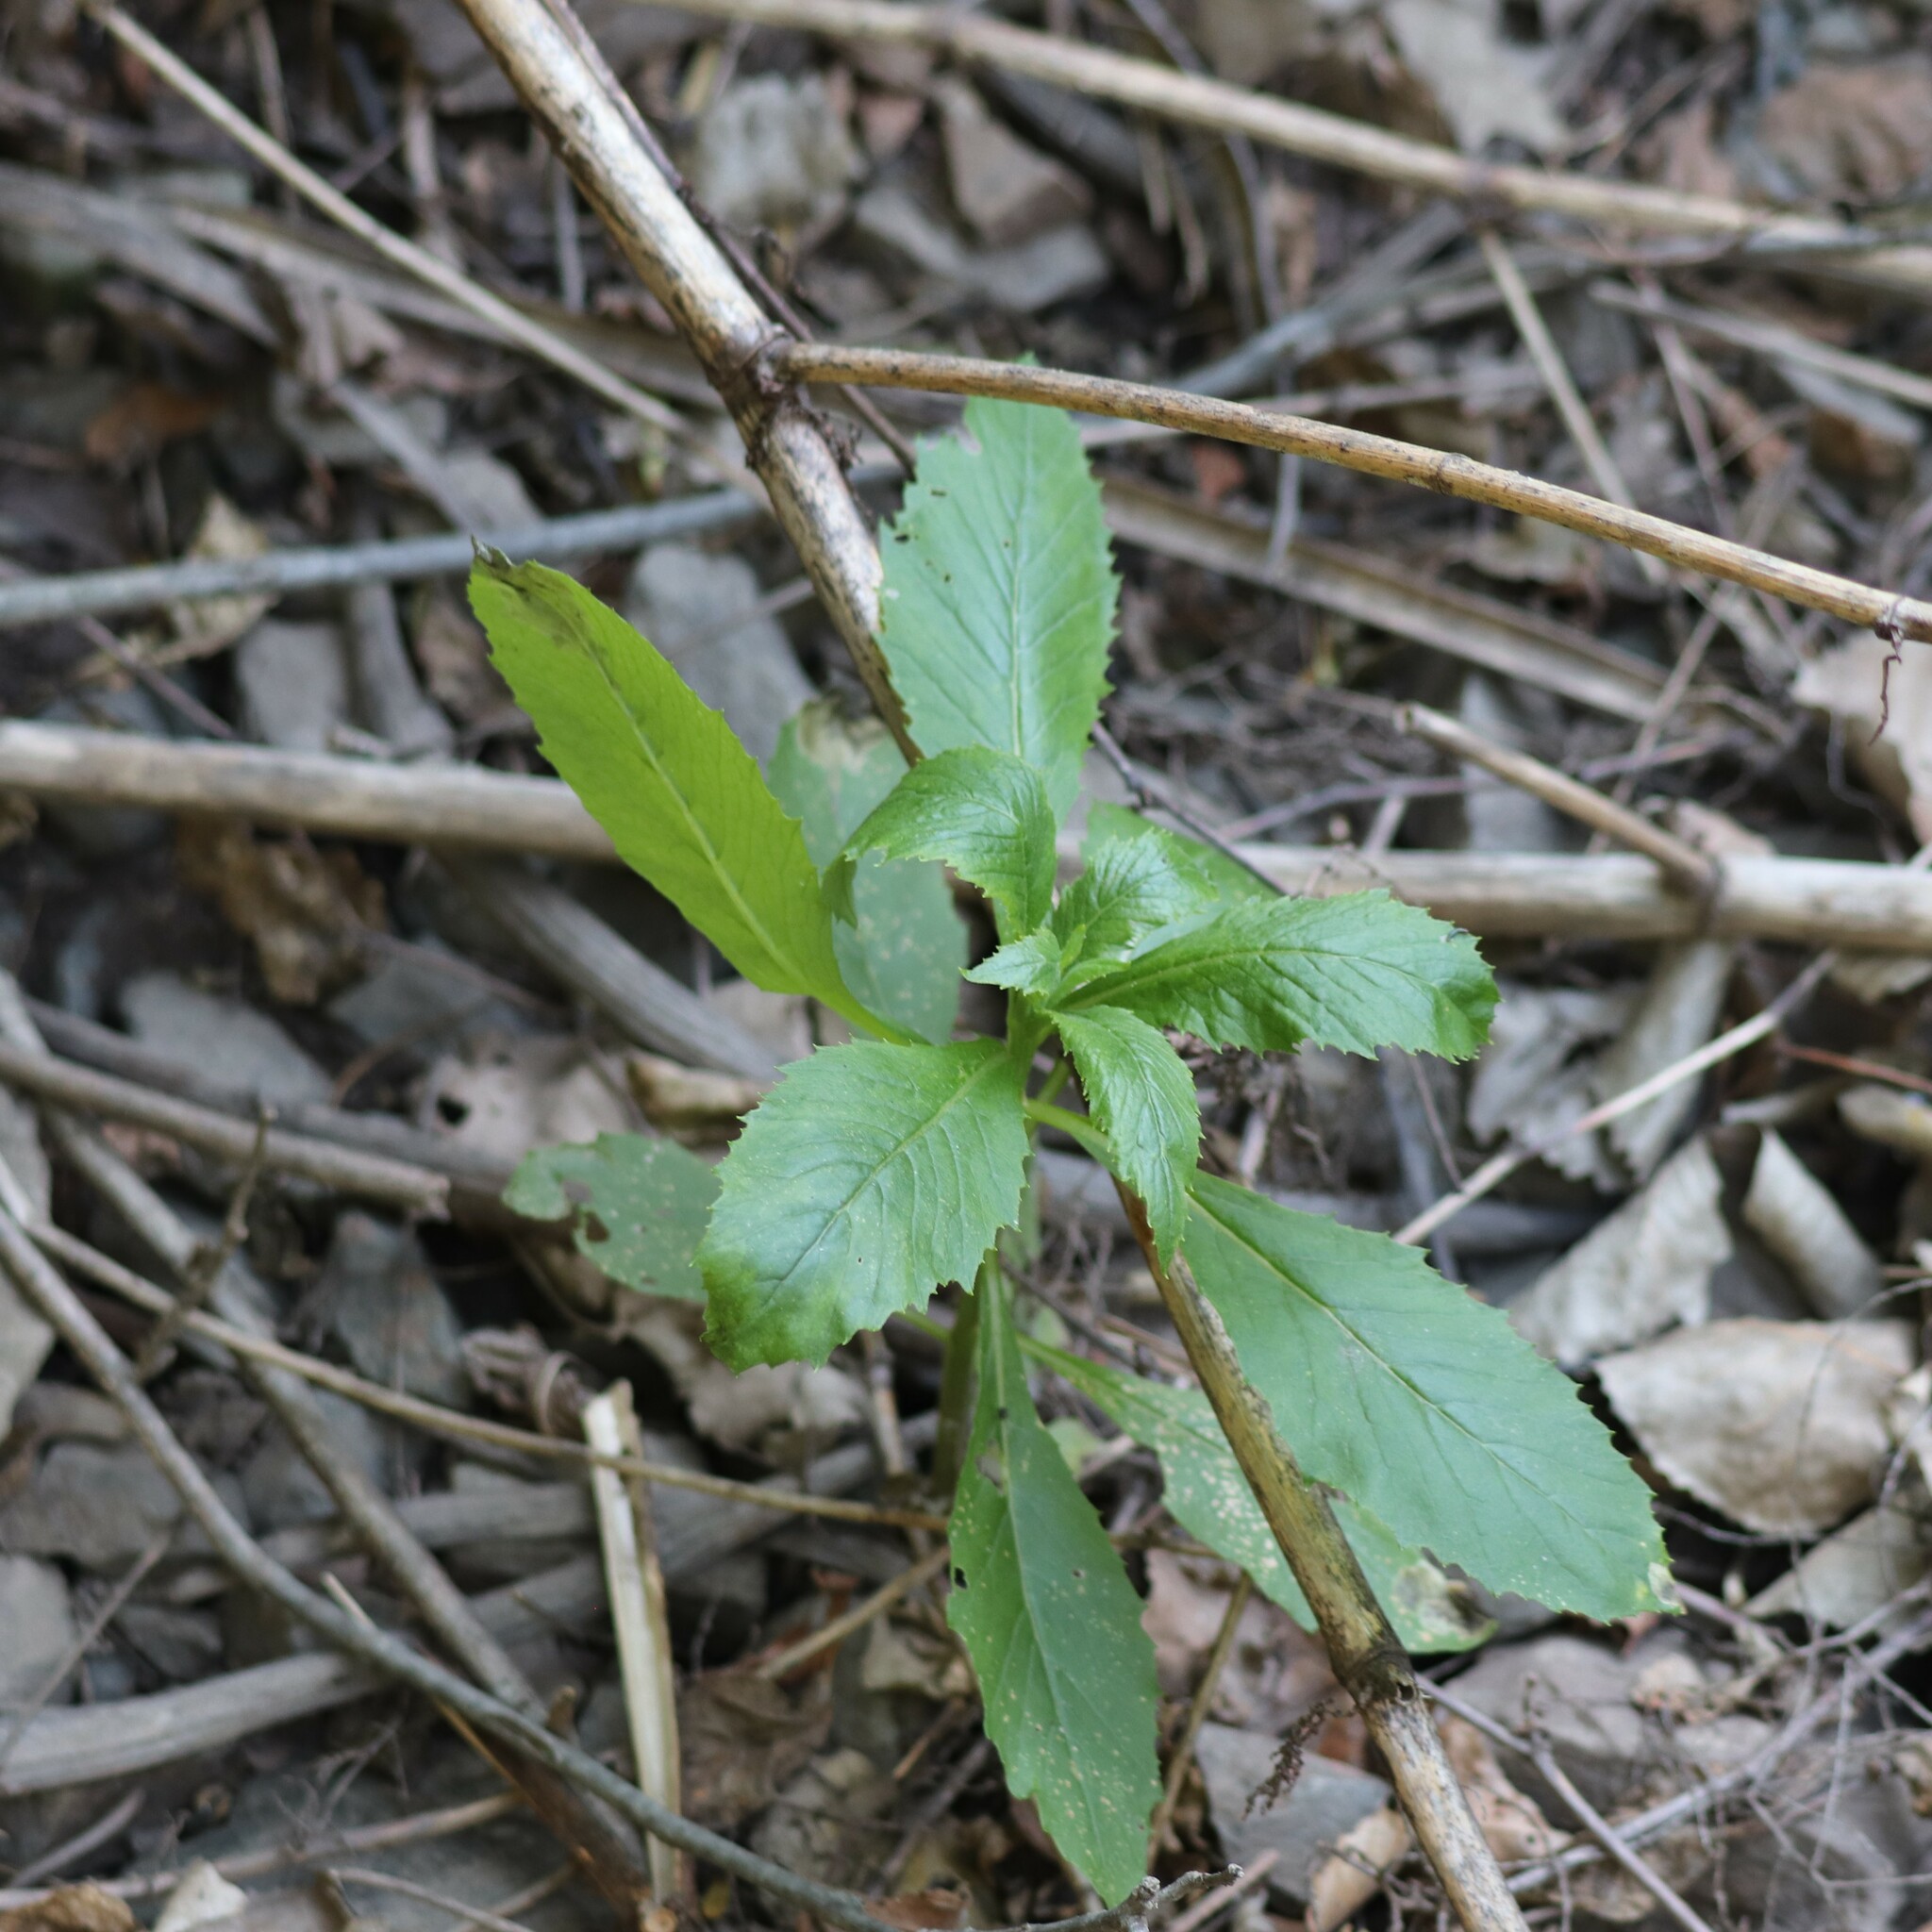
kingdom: Plantae
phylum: Tracheophyta
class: Magnoliopsida
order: Asterales
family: Asteraceae
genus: Erechtites
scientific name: Erechtites hieraciifolius
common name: American burnweed
